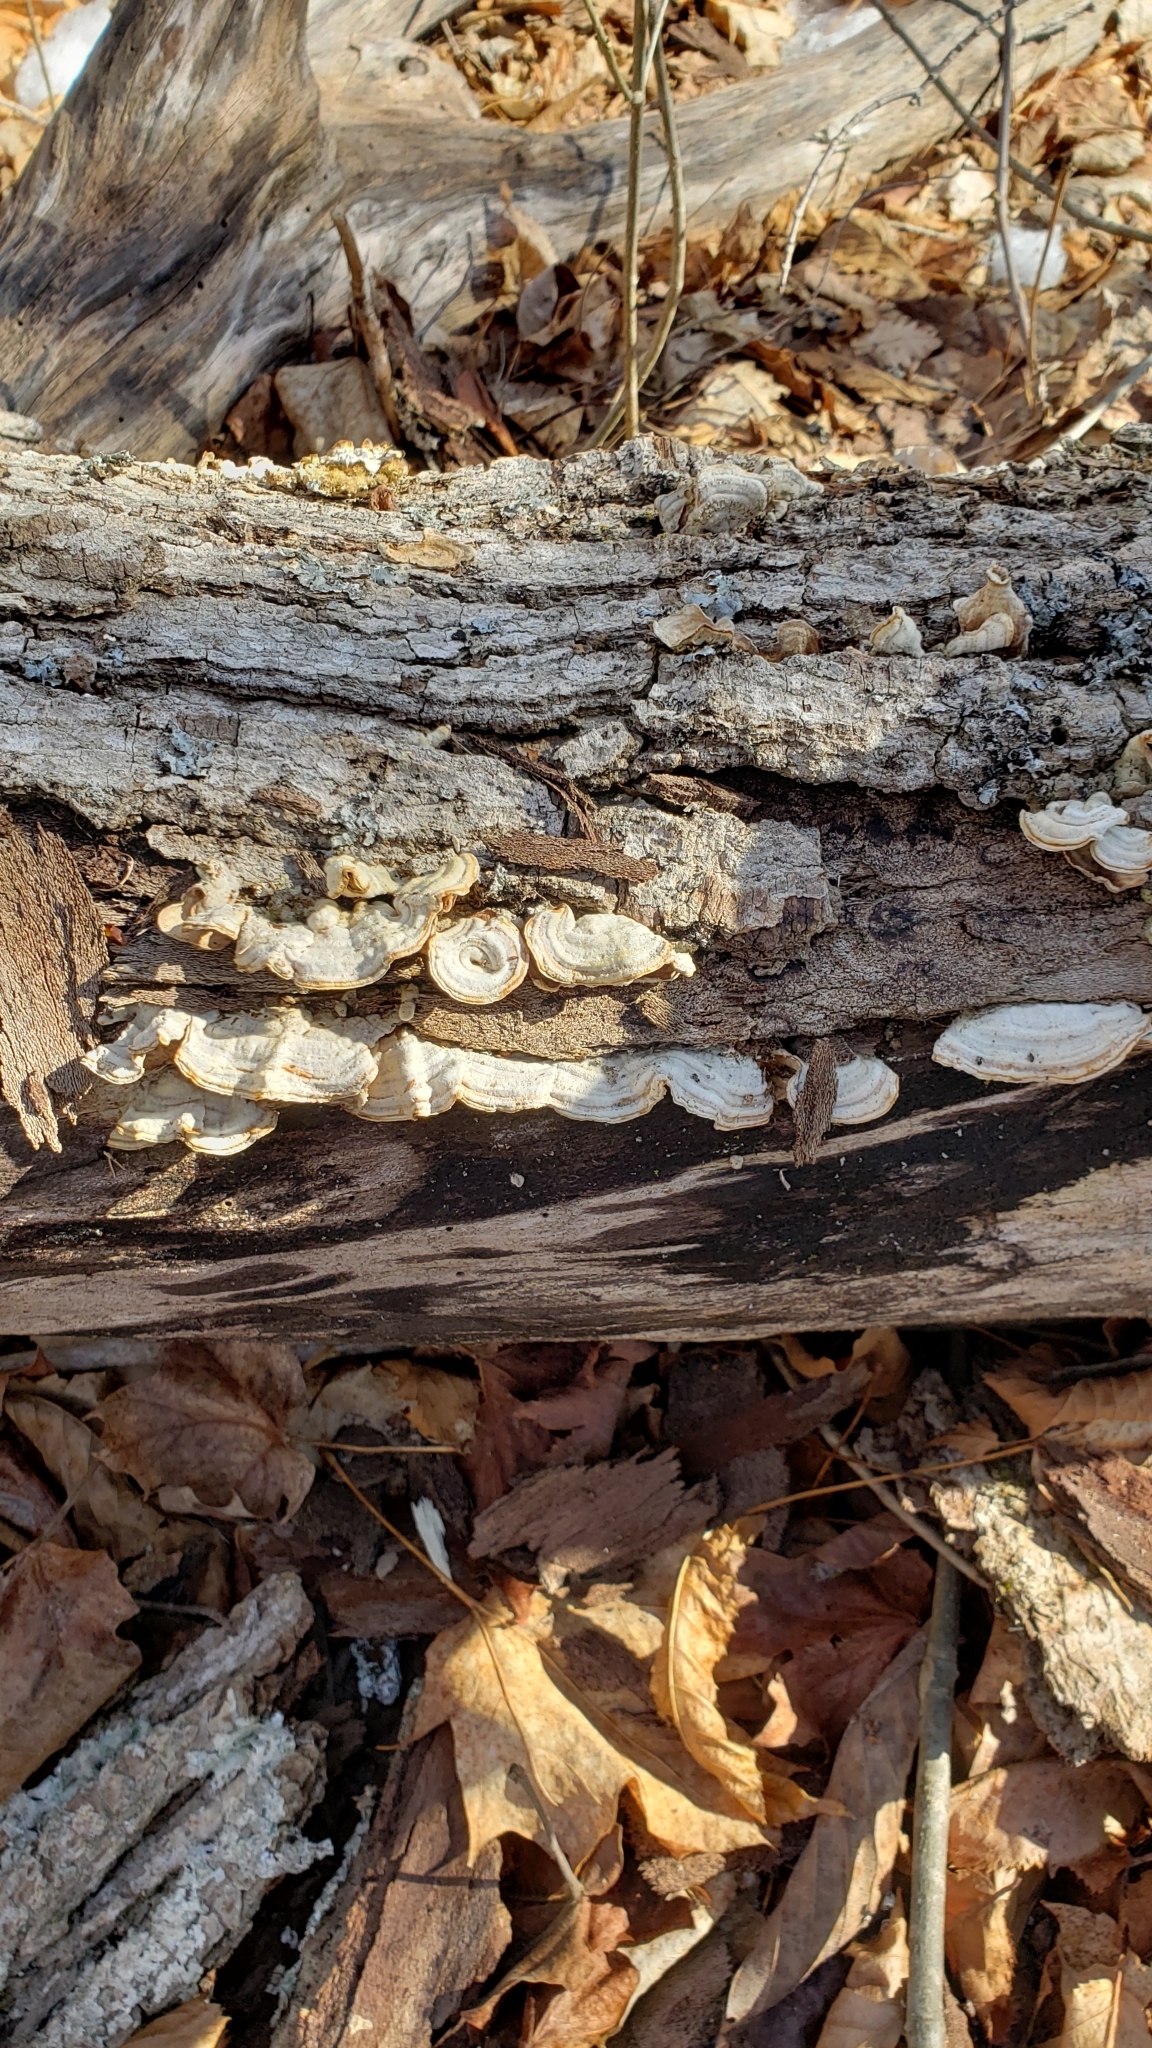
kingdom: Fungi
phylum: Basidiomycota
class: Agaricomycetes
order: Polyporales
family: Polyporaceae
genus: Trametes
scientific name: Trametes versicolor
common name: Turkeytail
